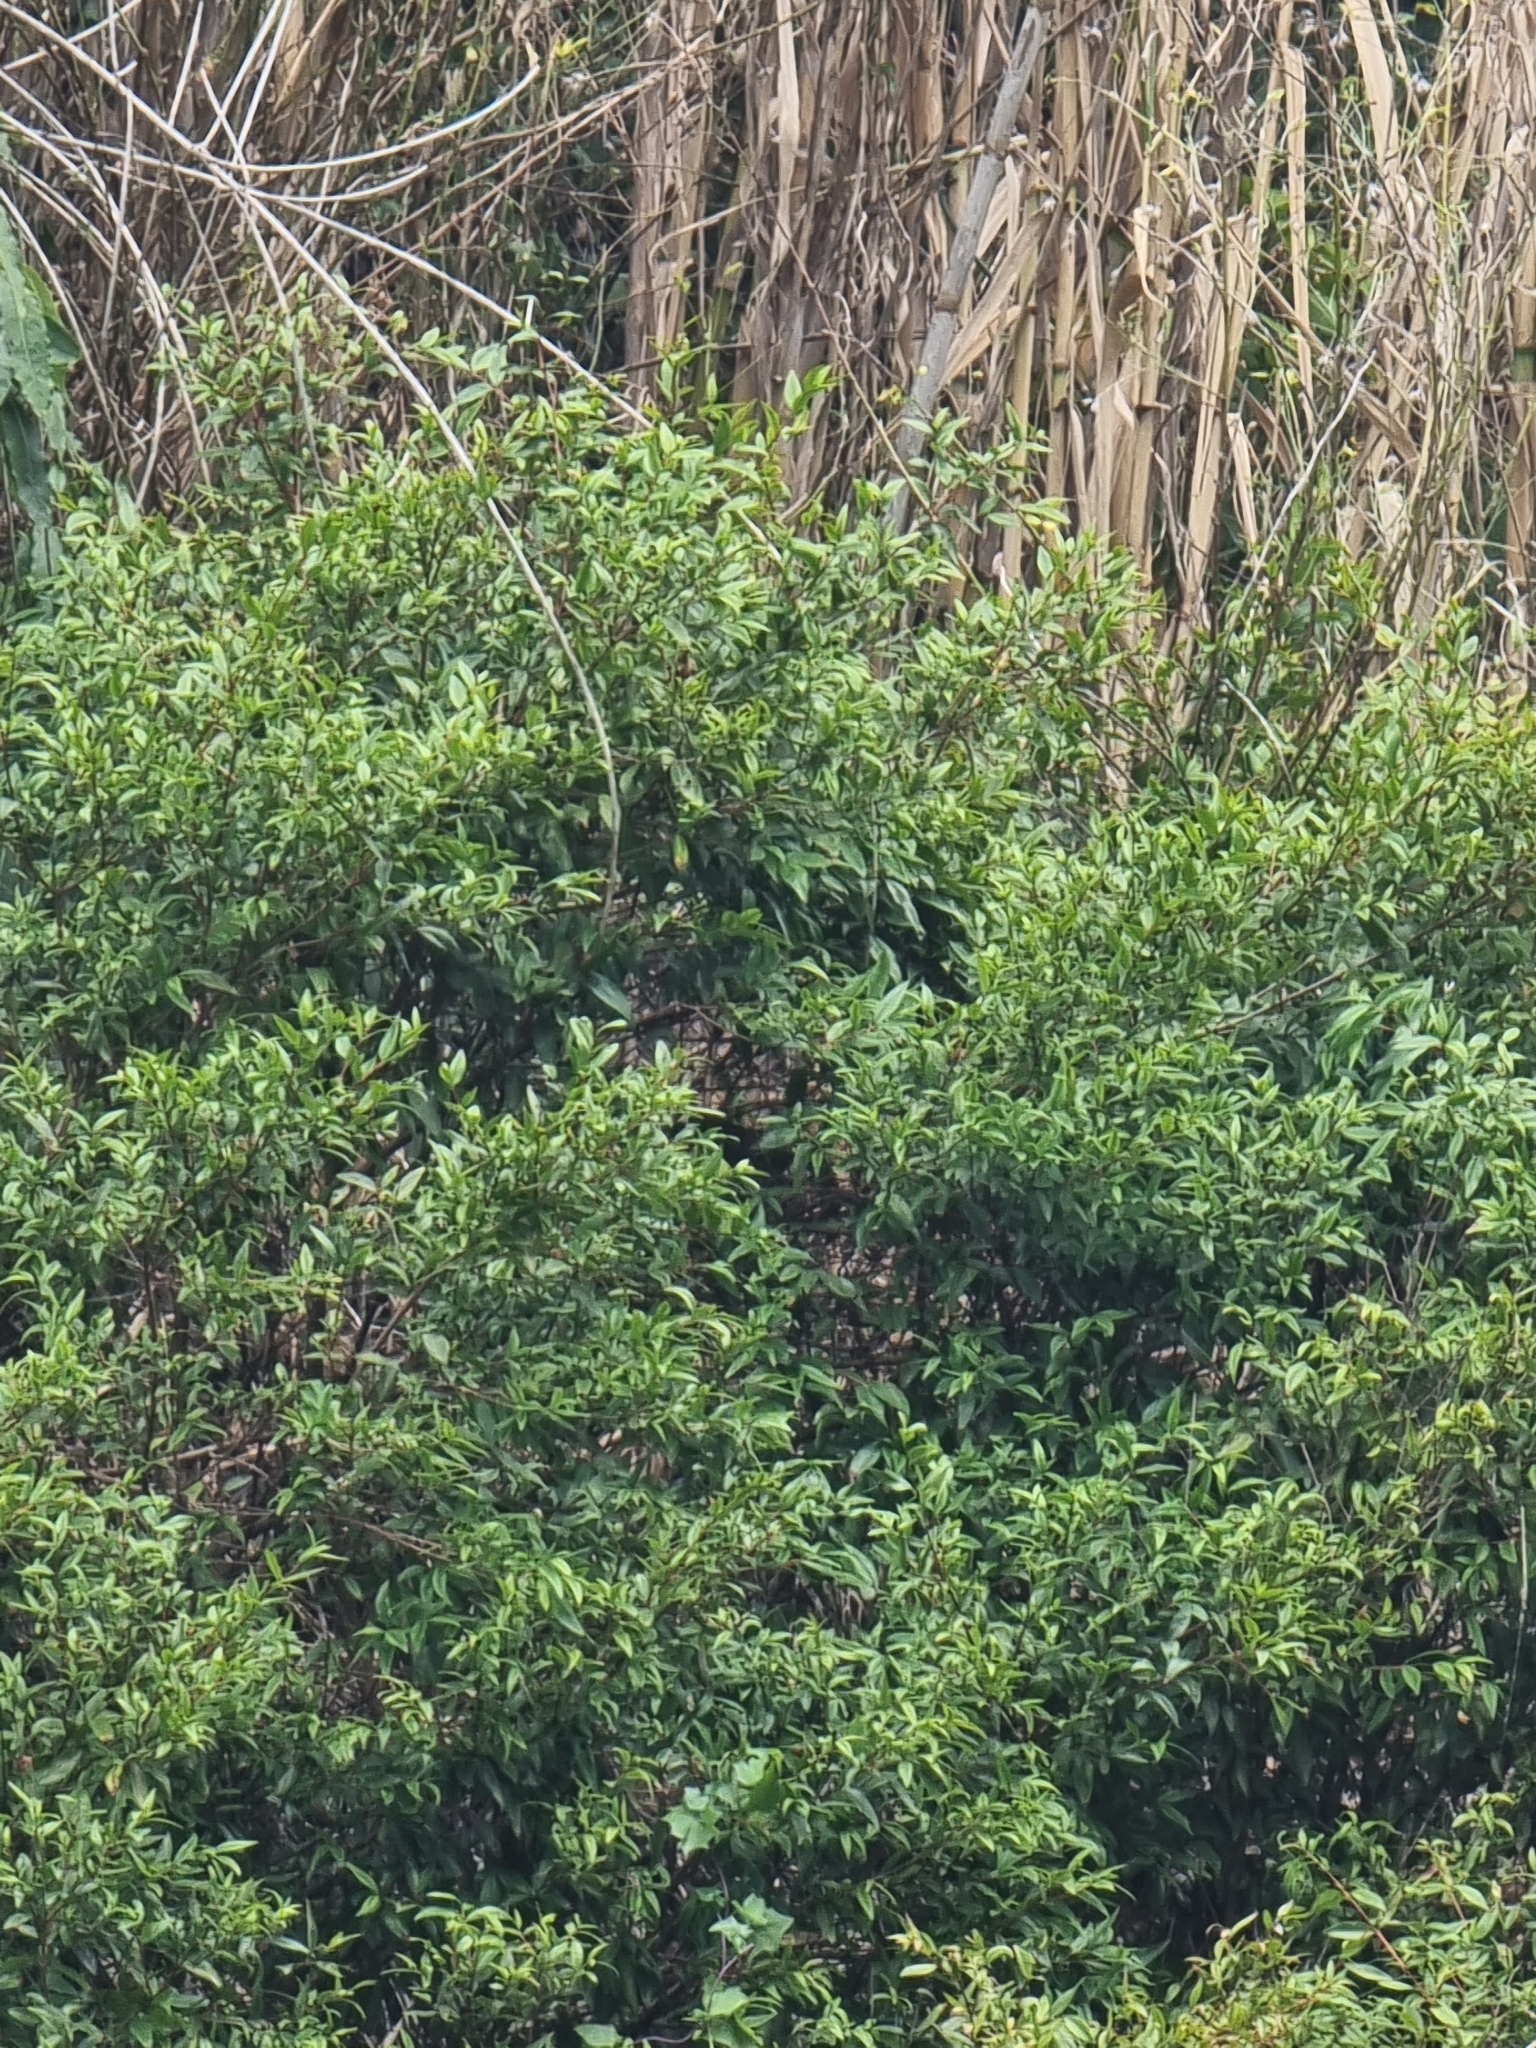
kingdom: Plantae
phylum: Tracheophyta
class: Magnoliopsida
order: Myrtales
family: Myrtaceae
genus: Myrtus
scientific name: Myrtus communis
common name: Myrtle
